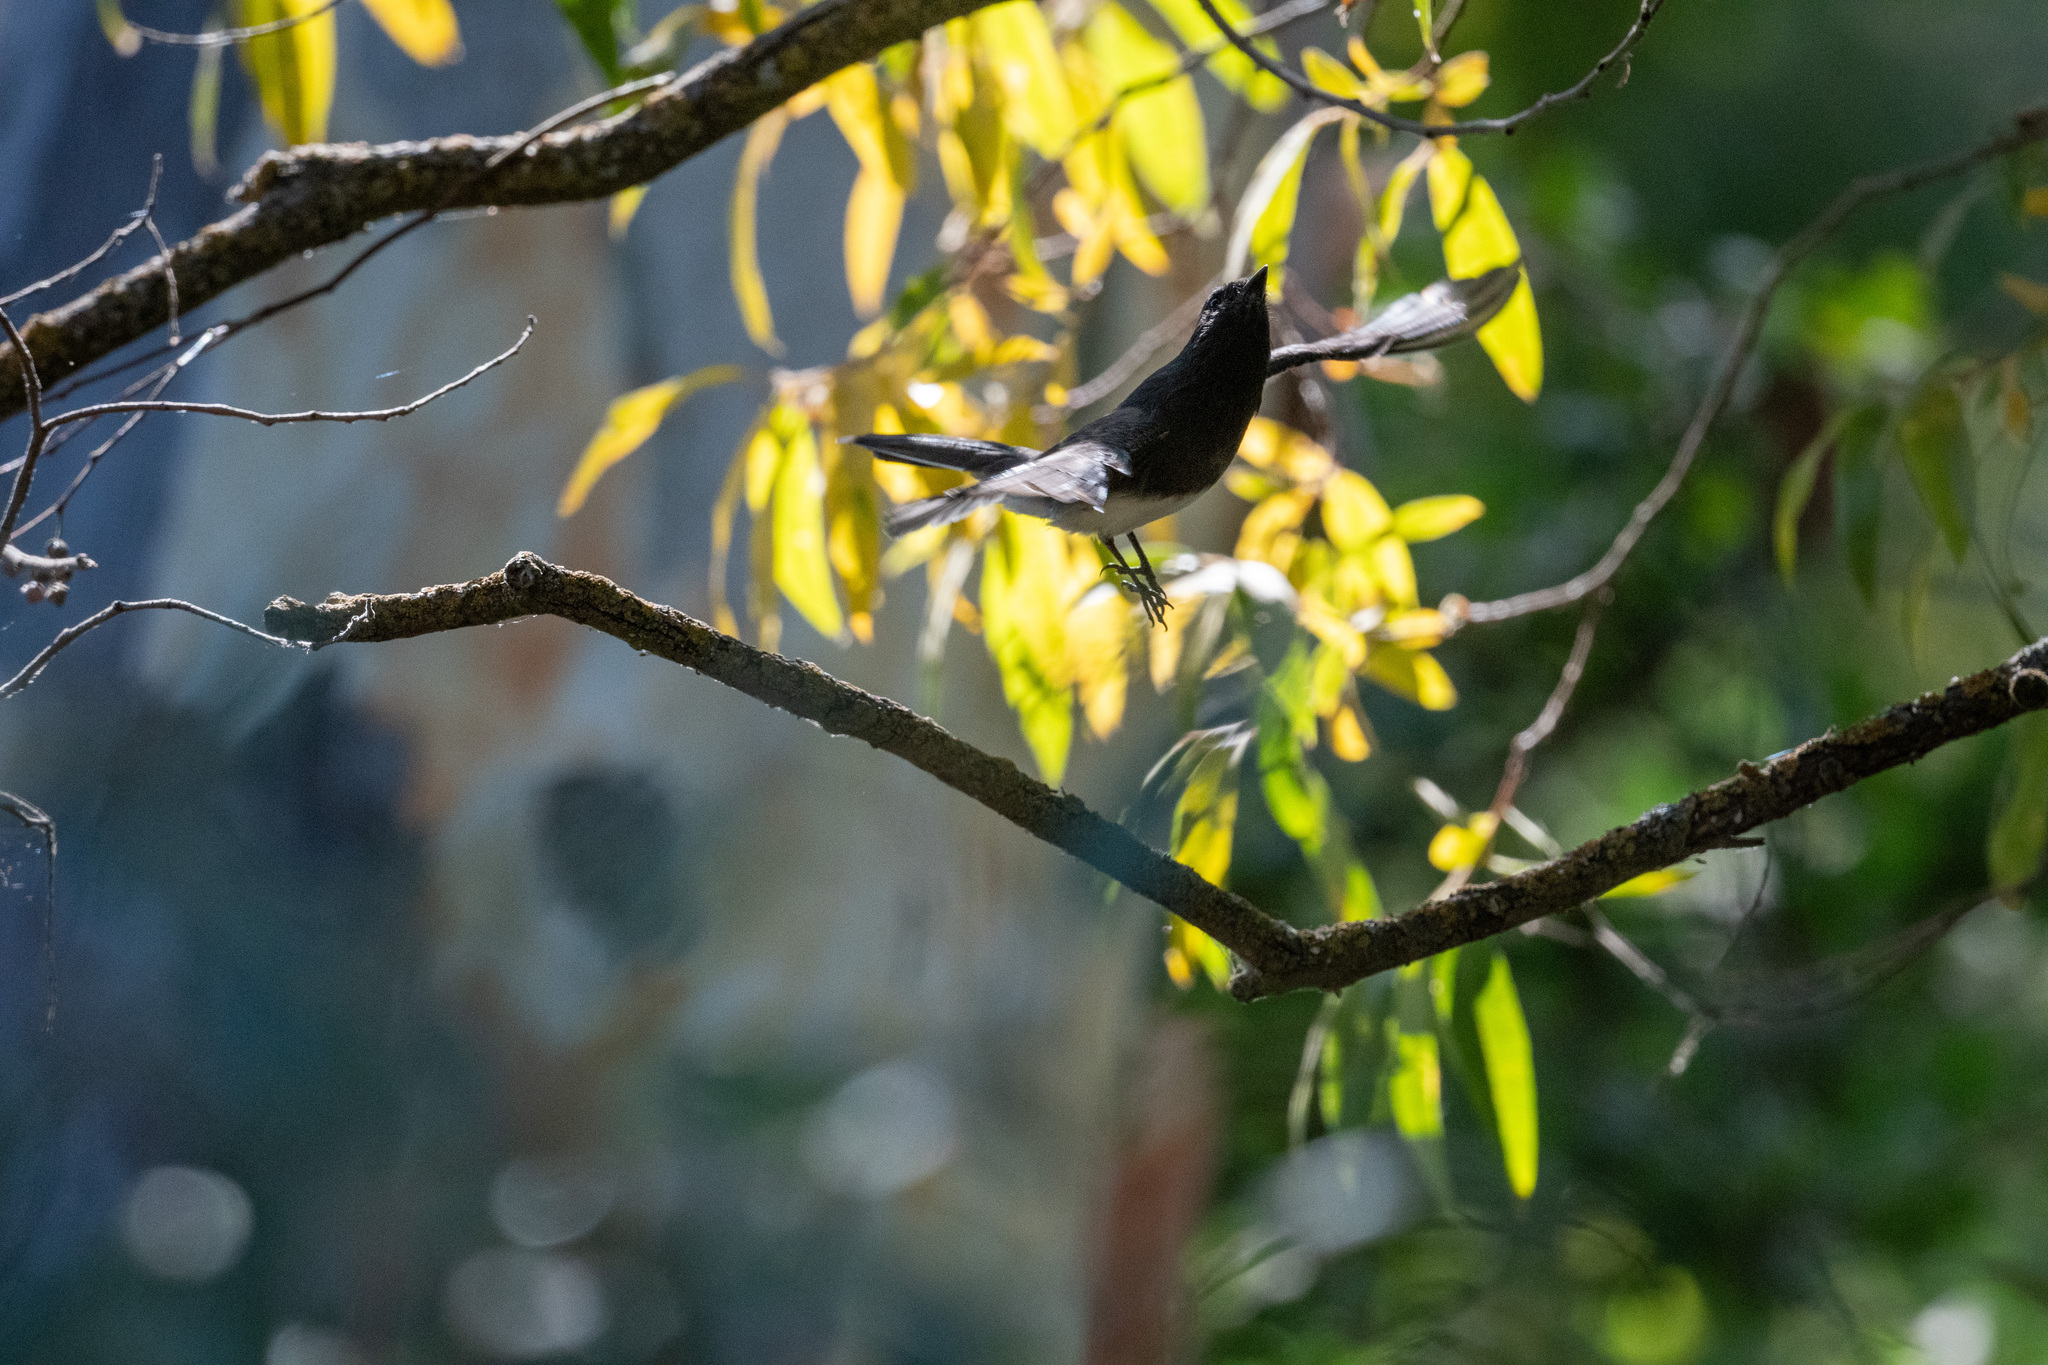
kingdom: Animalia
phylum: Chordata
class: Aves
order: Passeriformes
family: Tyrannidae
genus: Sayornis
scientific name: Sayornis nigricans
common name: Black phoebe
